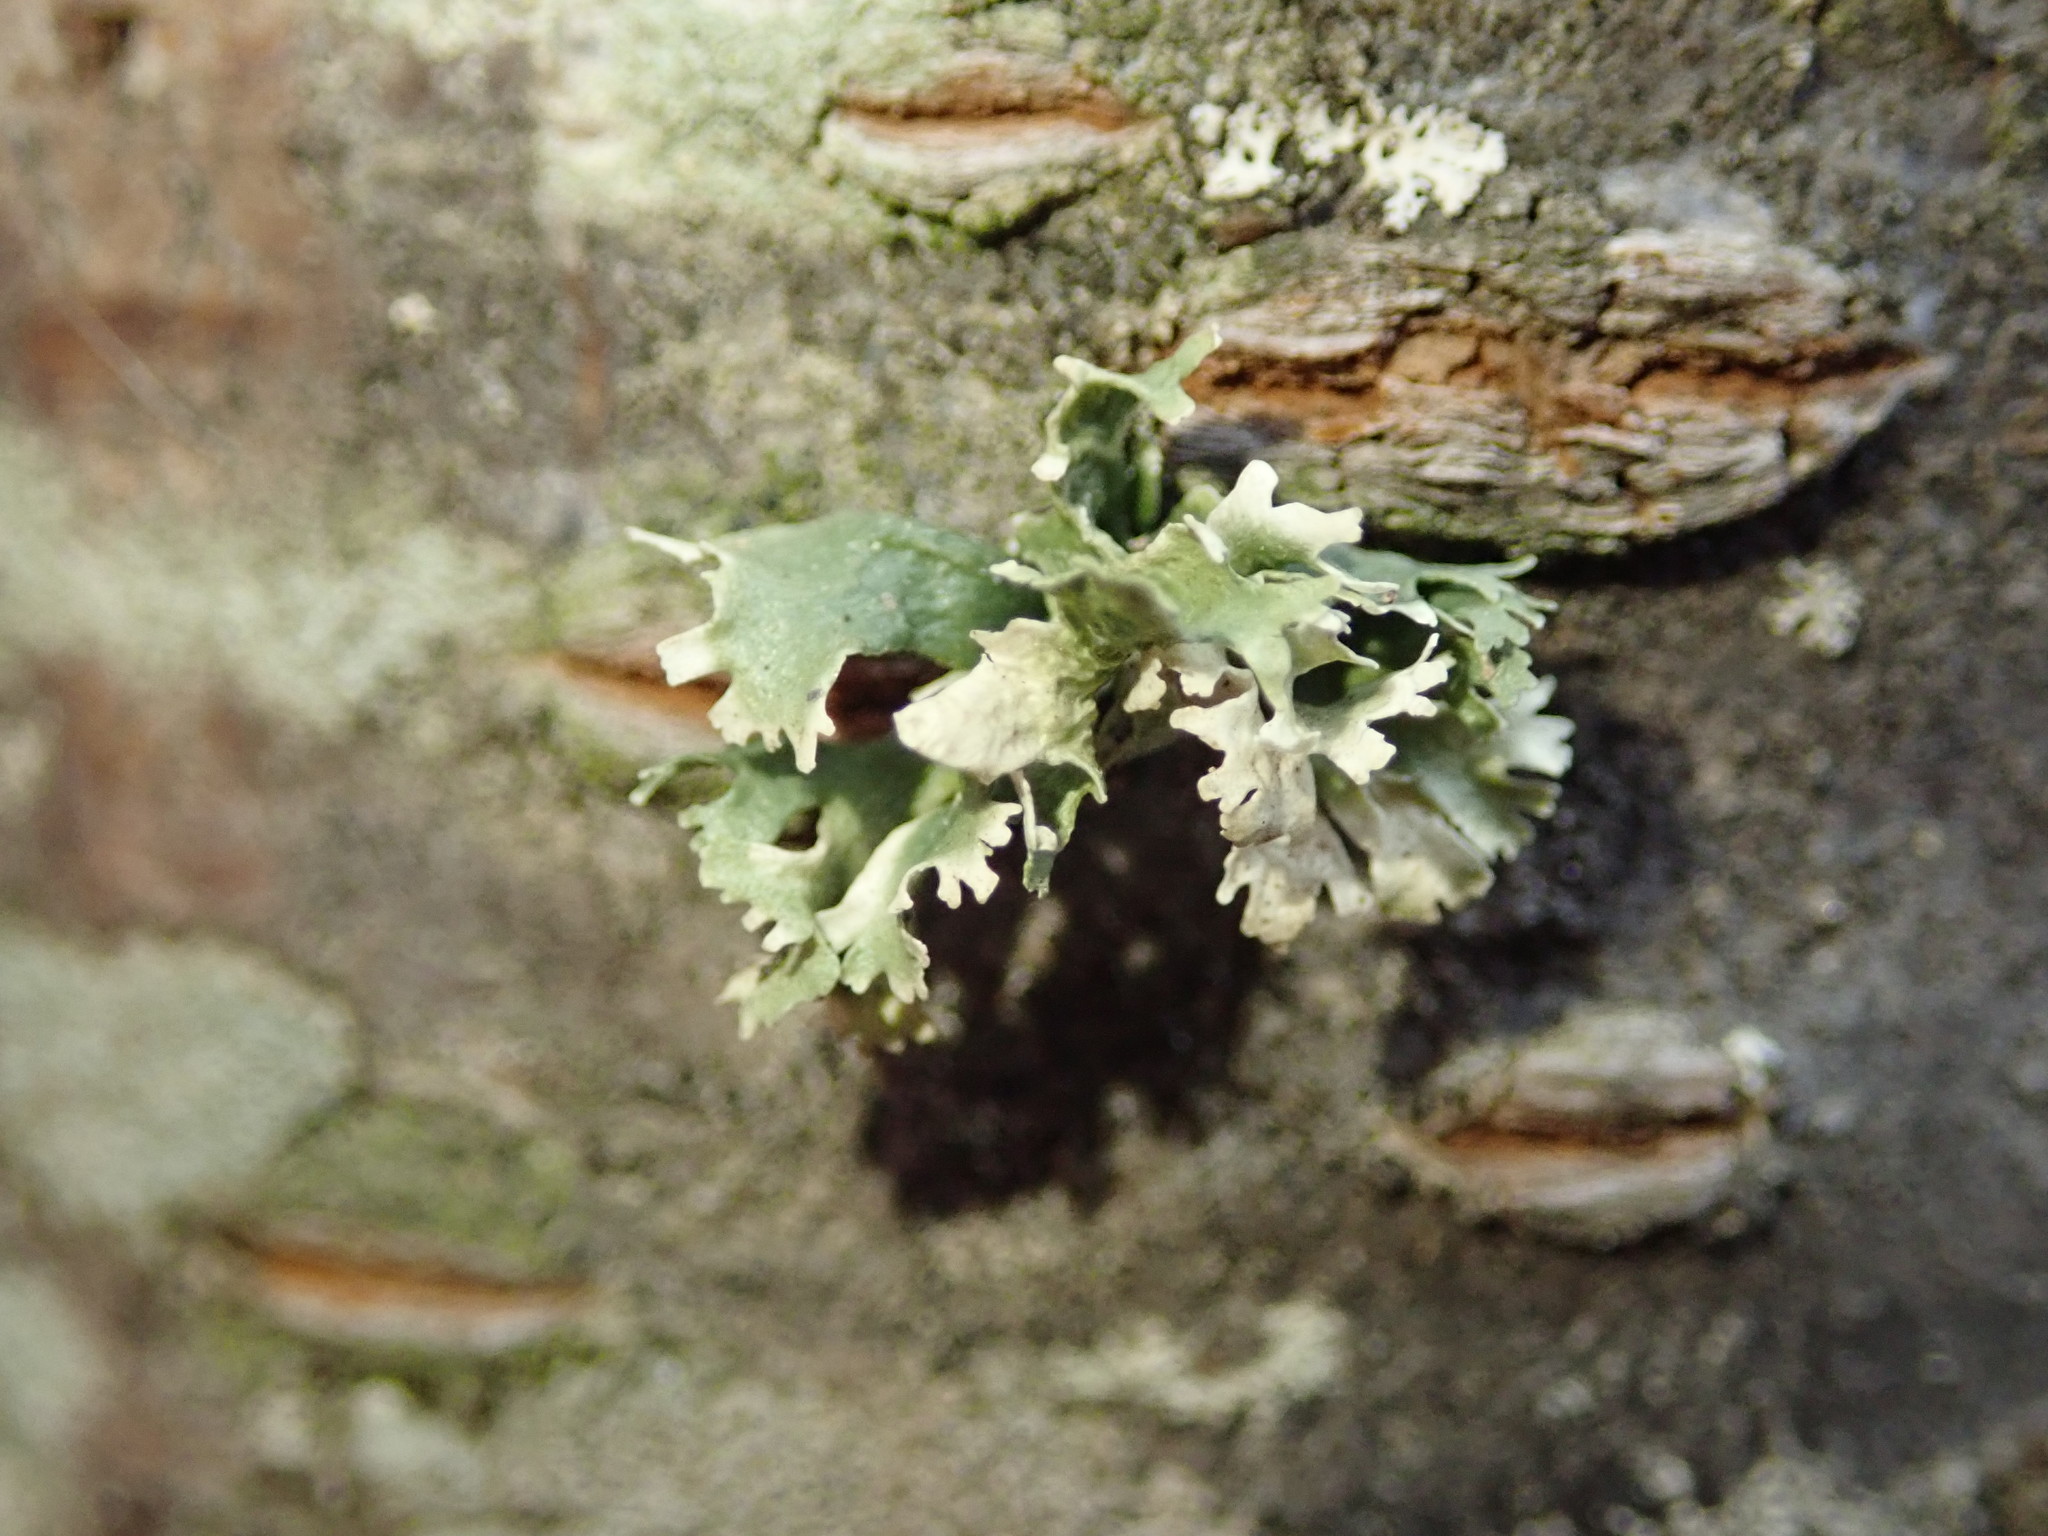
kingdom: Fungi
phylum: Ascomycota
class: Lecanoromycetes
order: Lecanorales
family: Ramalinaceae
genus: Ramalina
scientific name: Ramalina americana
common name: Sinewed bush lichen
